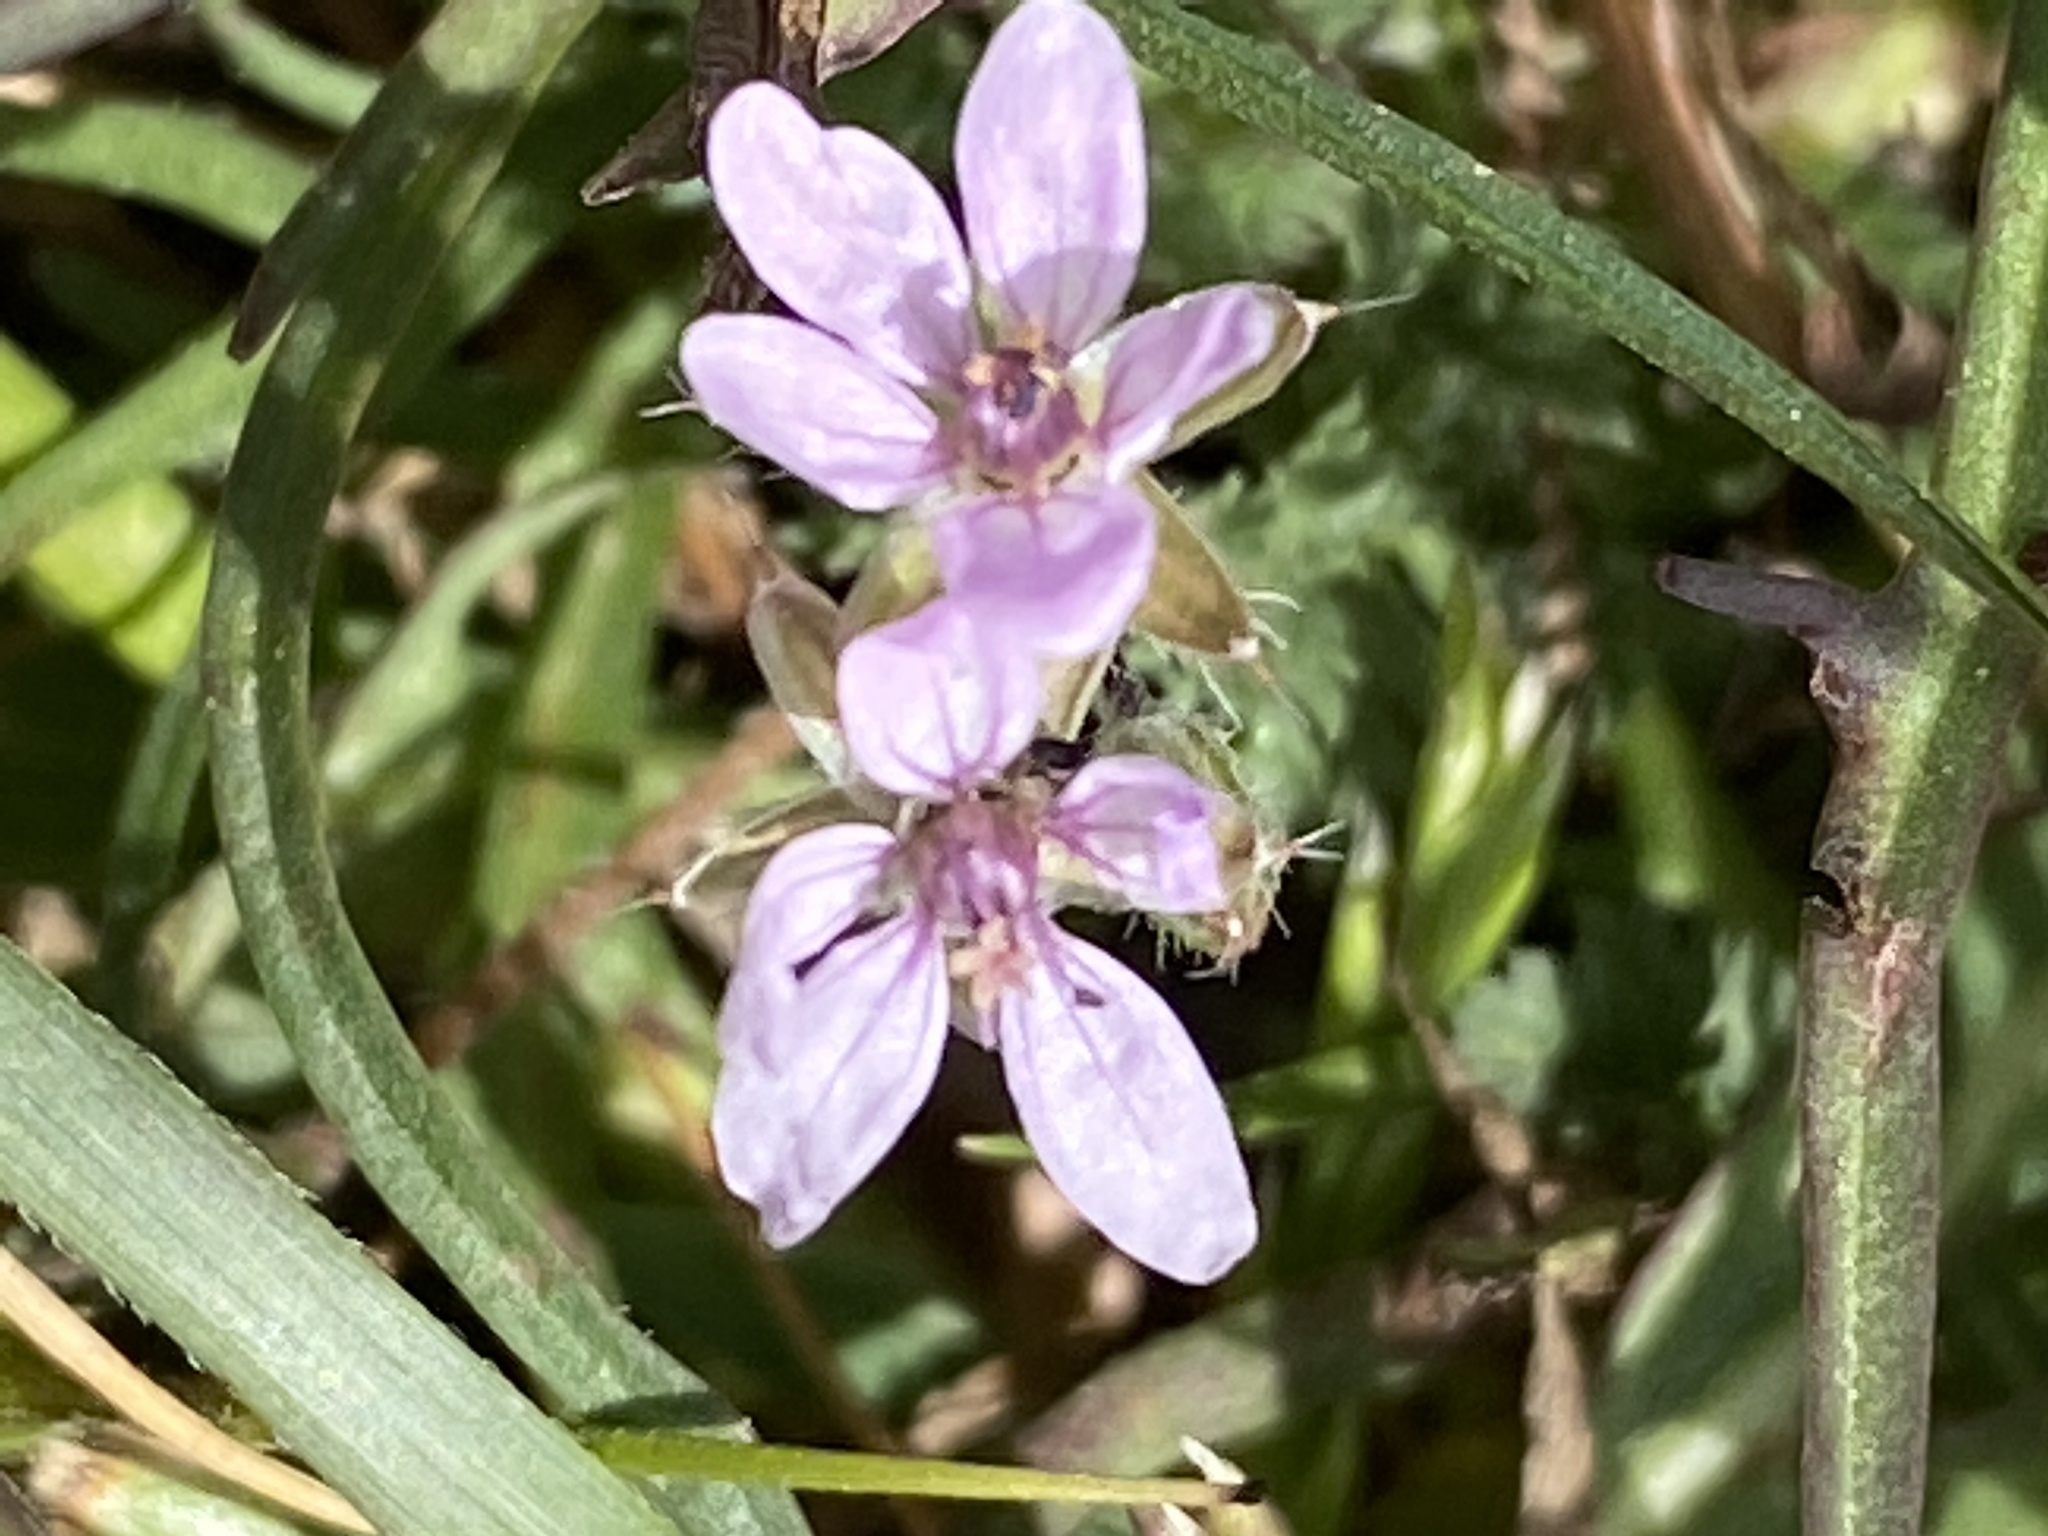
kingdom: Plantae
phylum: Tracheophyta
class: Magnoliopsida
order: Geraniales
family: Geraniaceae
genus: Erodium
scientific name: Erodium cicutarium
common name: Common stork's-bill
